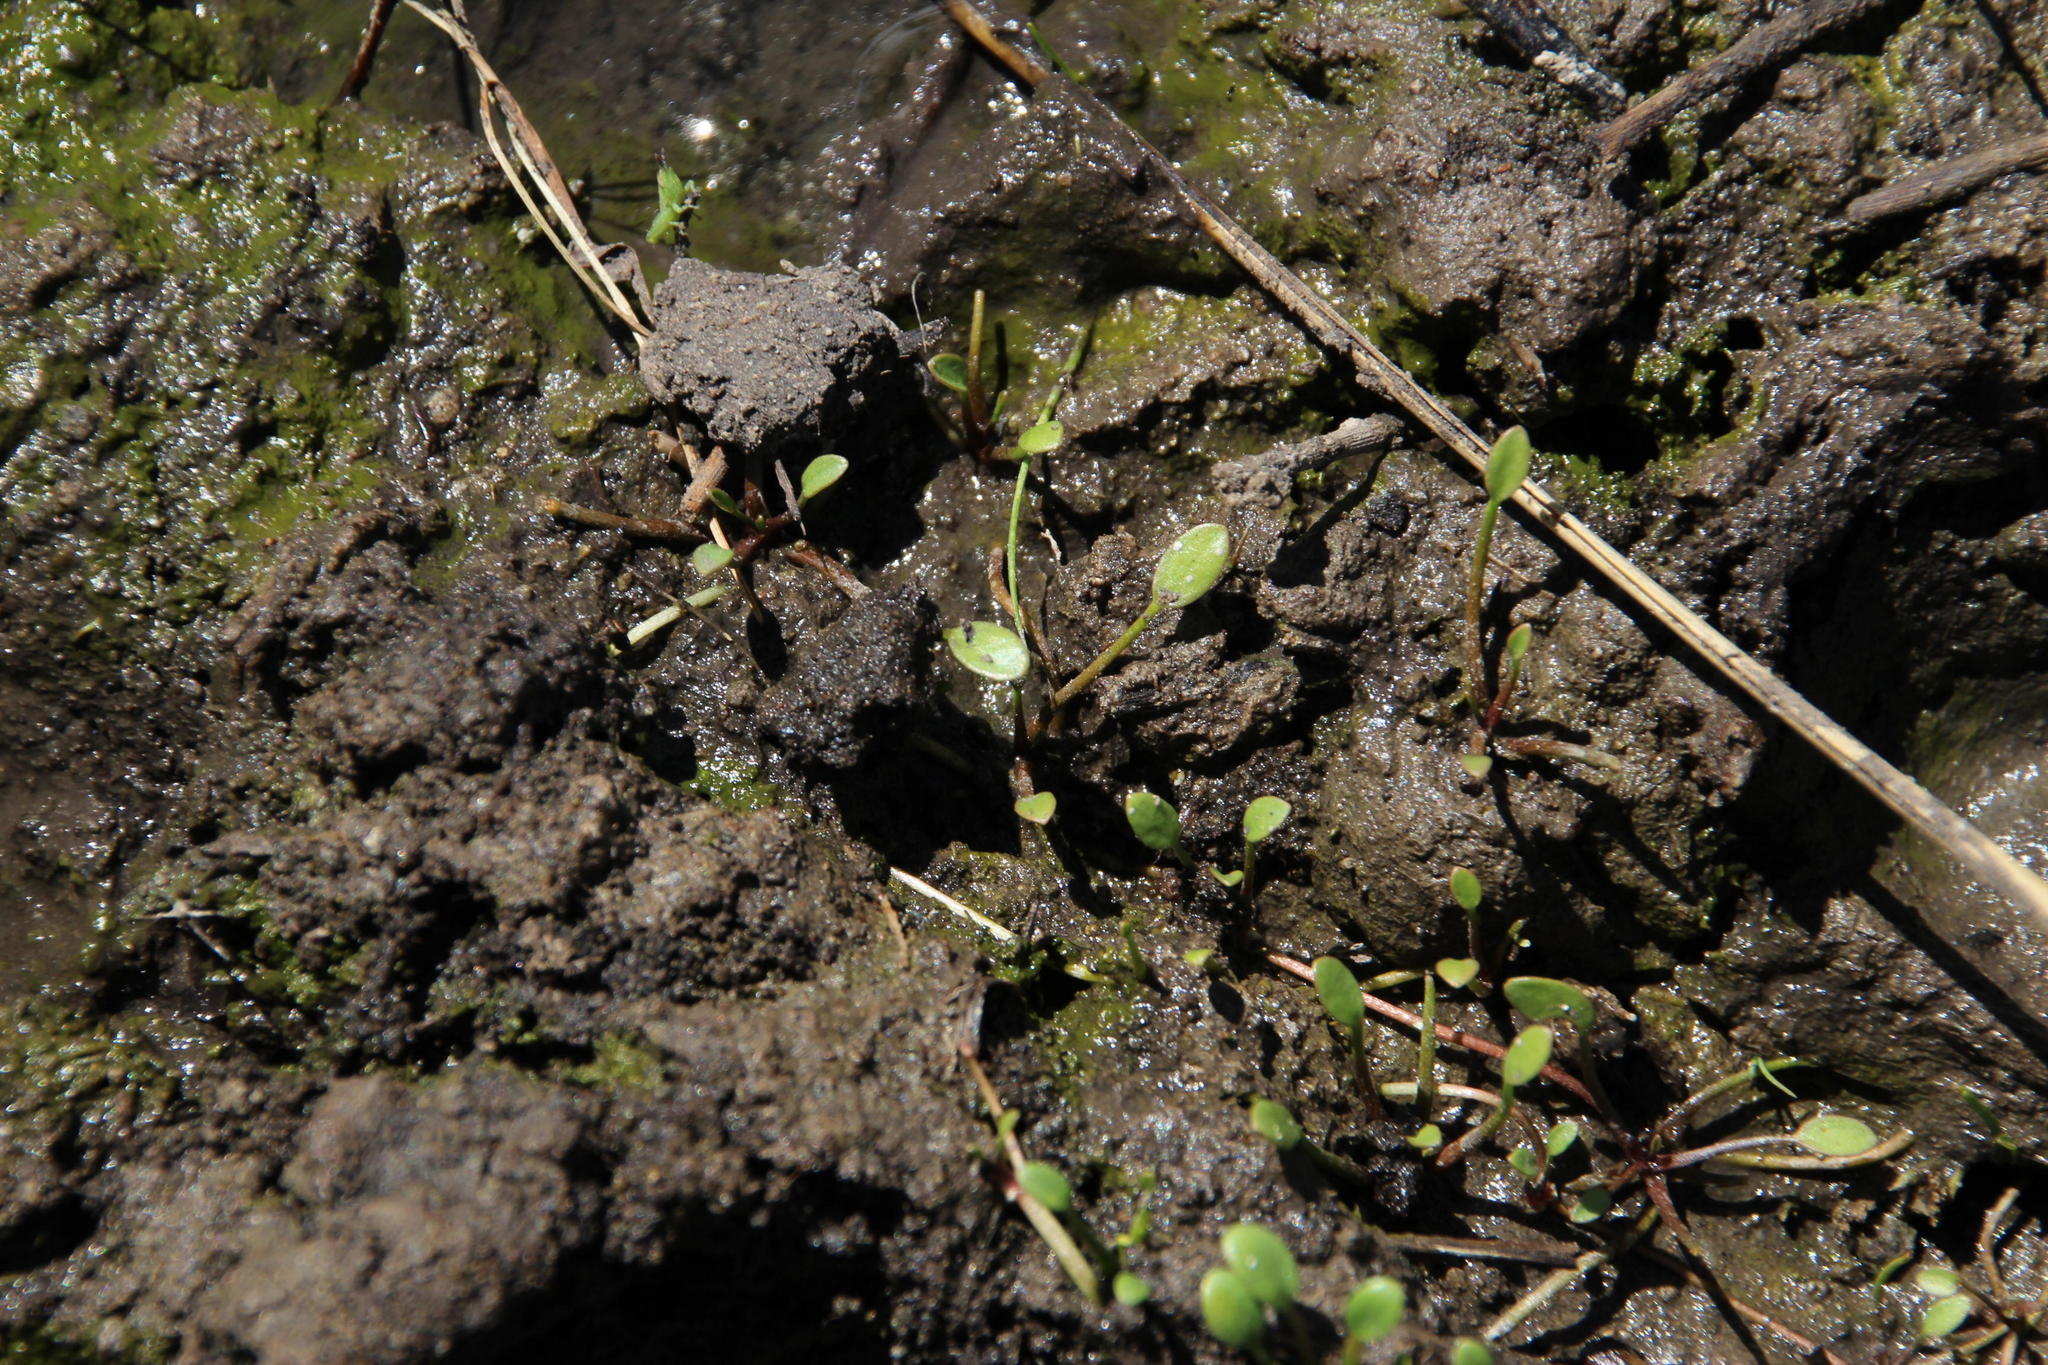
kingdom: Plantae
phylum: Tracheophyta
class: Magnoliopsida
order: Lamiales
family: Scrophulariaceae
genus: Limosella
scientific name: Limosella inflata
